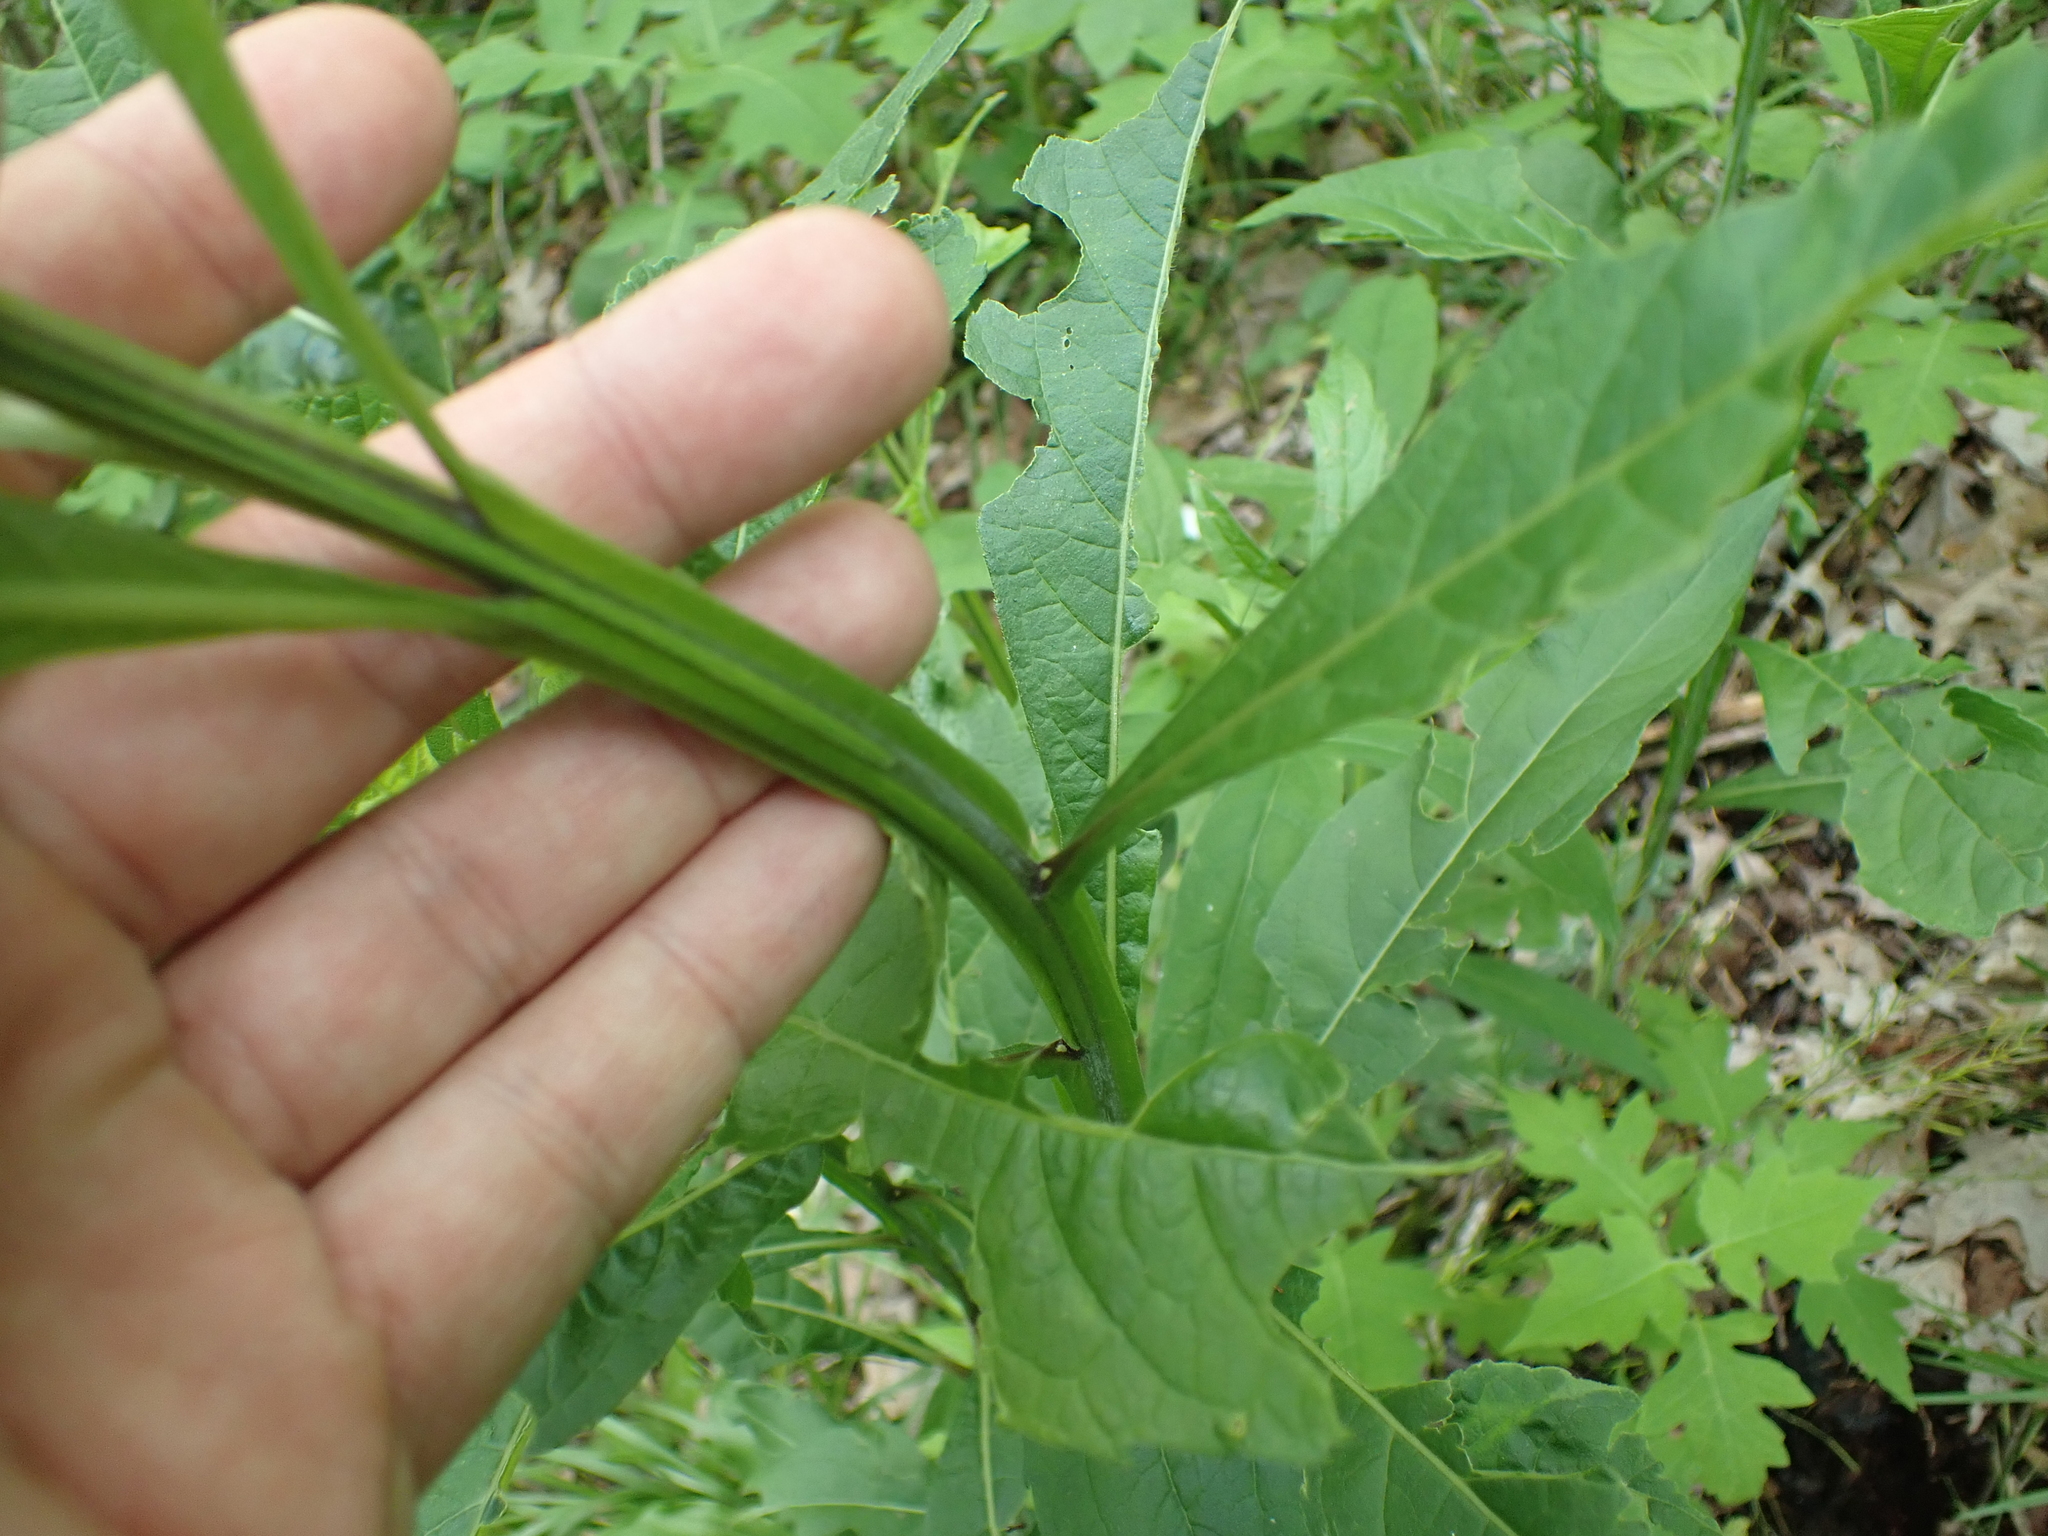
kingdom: Plantae
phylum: Tracheophyta
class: Magnoliopsida
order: Asterales
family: Asteraceae
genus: Verbesina
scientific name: Verbesina alternifolia
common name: Wingstem
